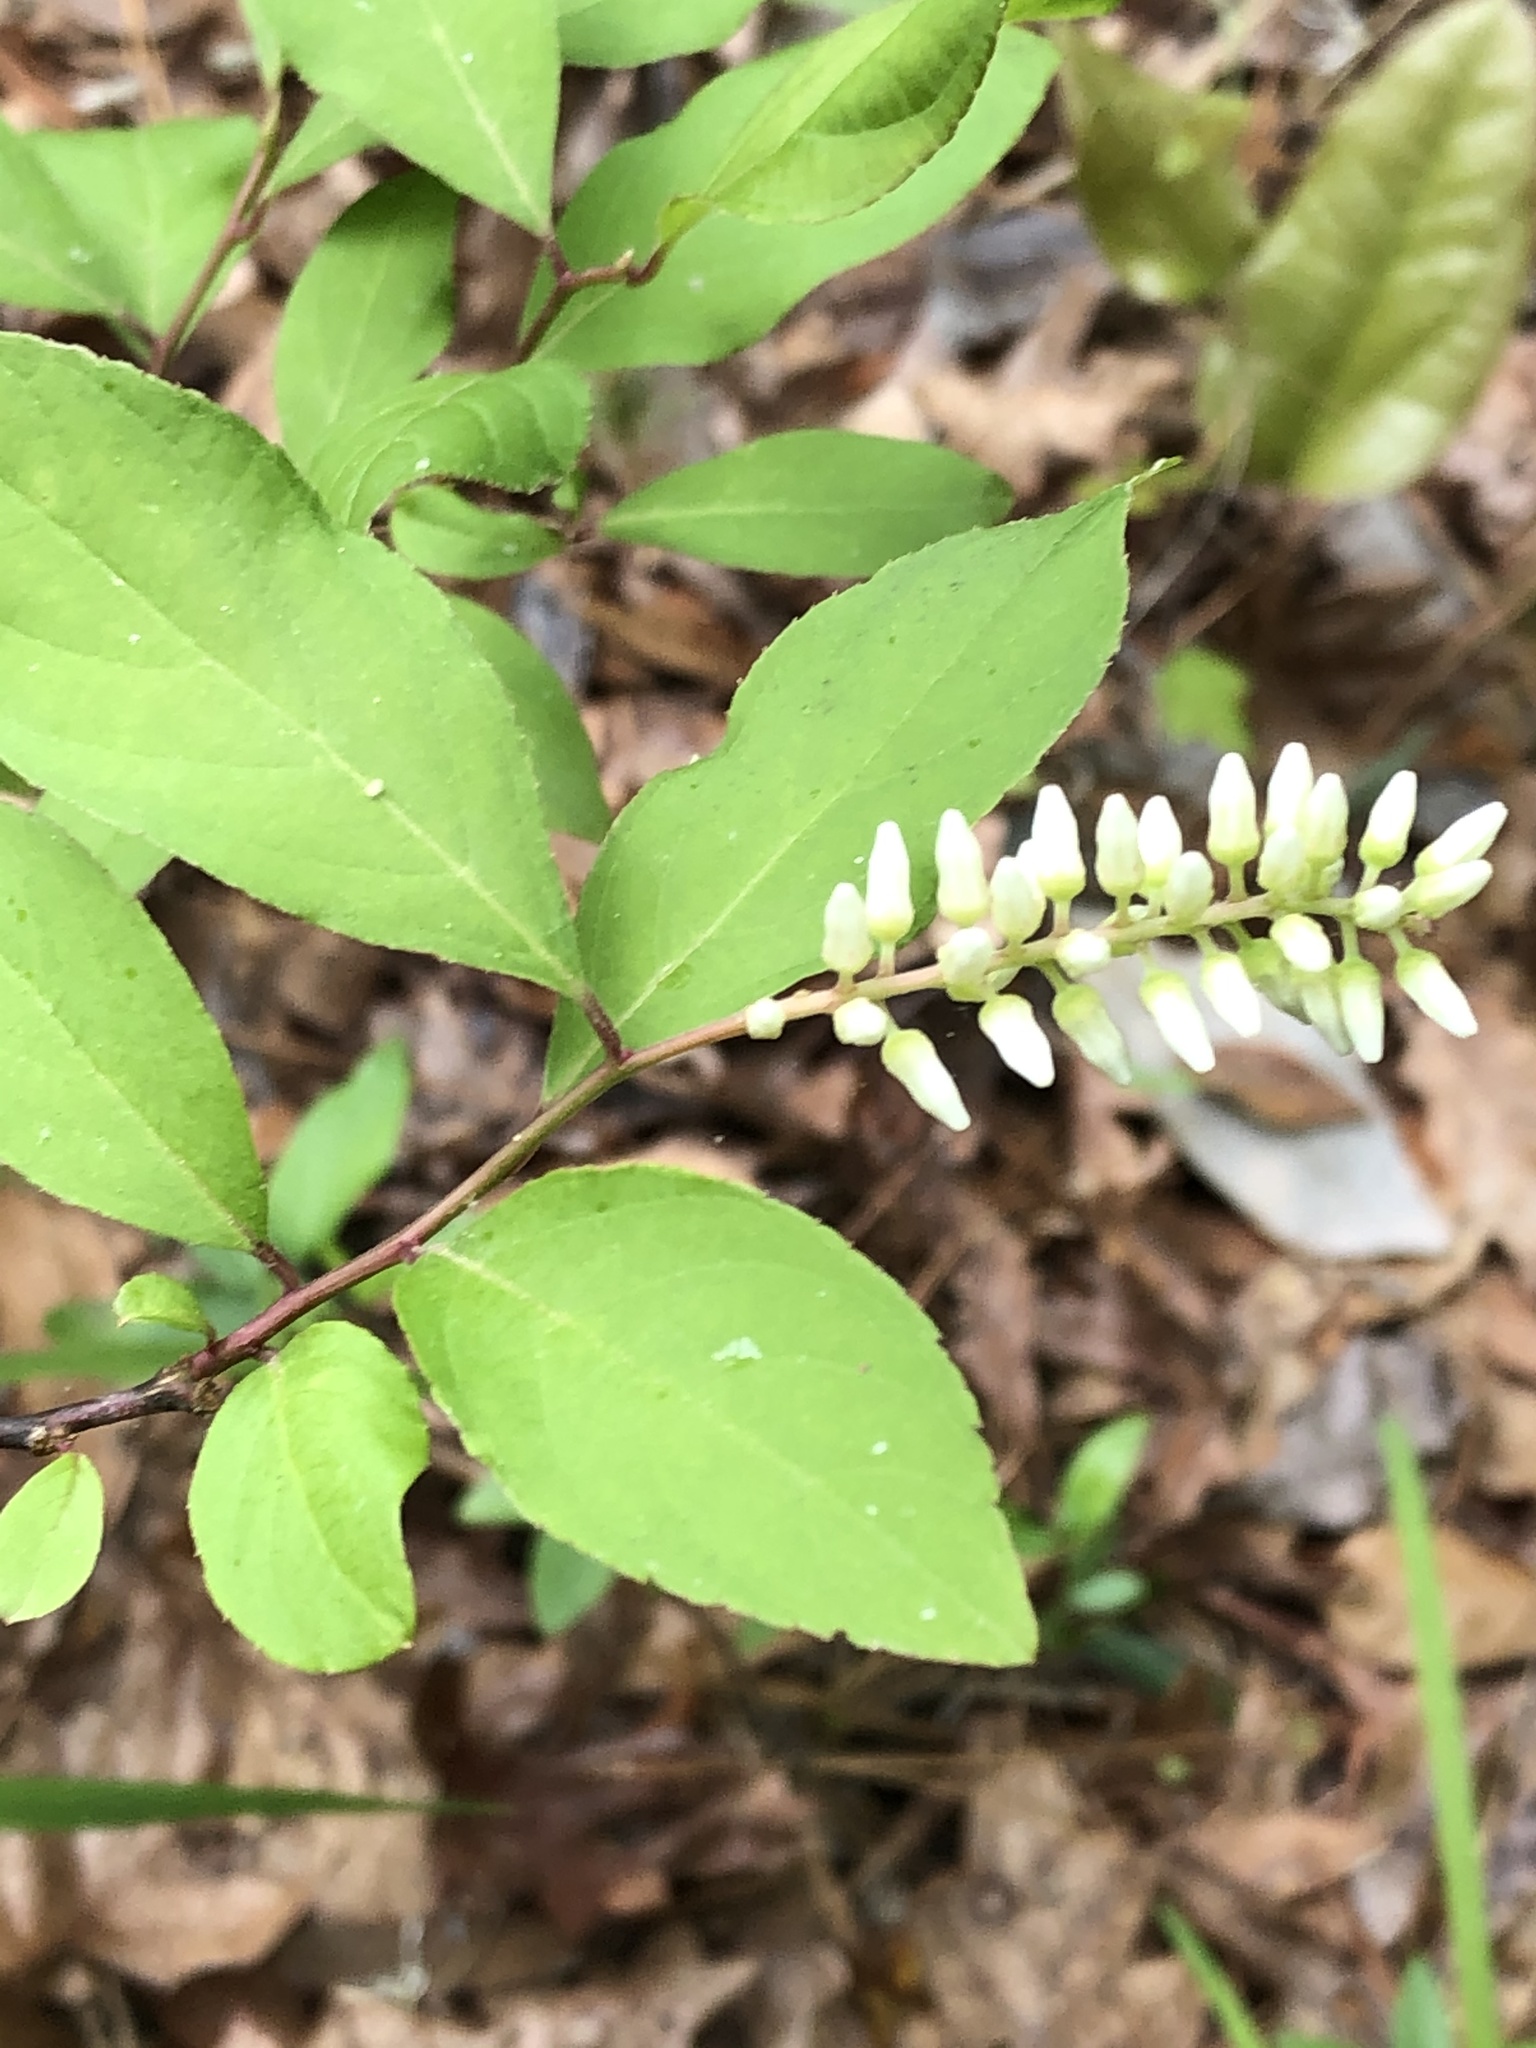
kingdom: Plantae
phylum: Tracheophyta
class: Magnoliopsida
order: Saxifragales
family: Iteaceae
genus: Itea
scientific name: Itea virginica
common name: Sweetspire
